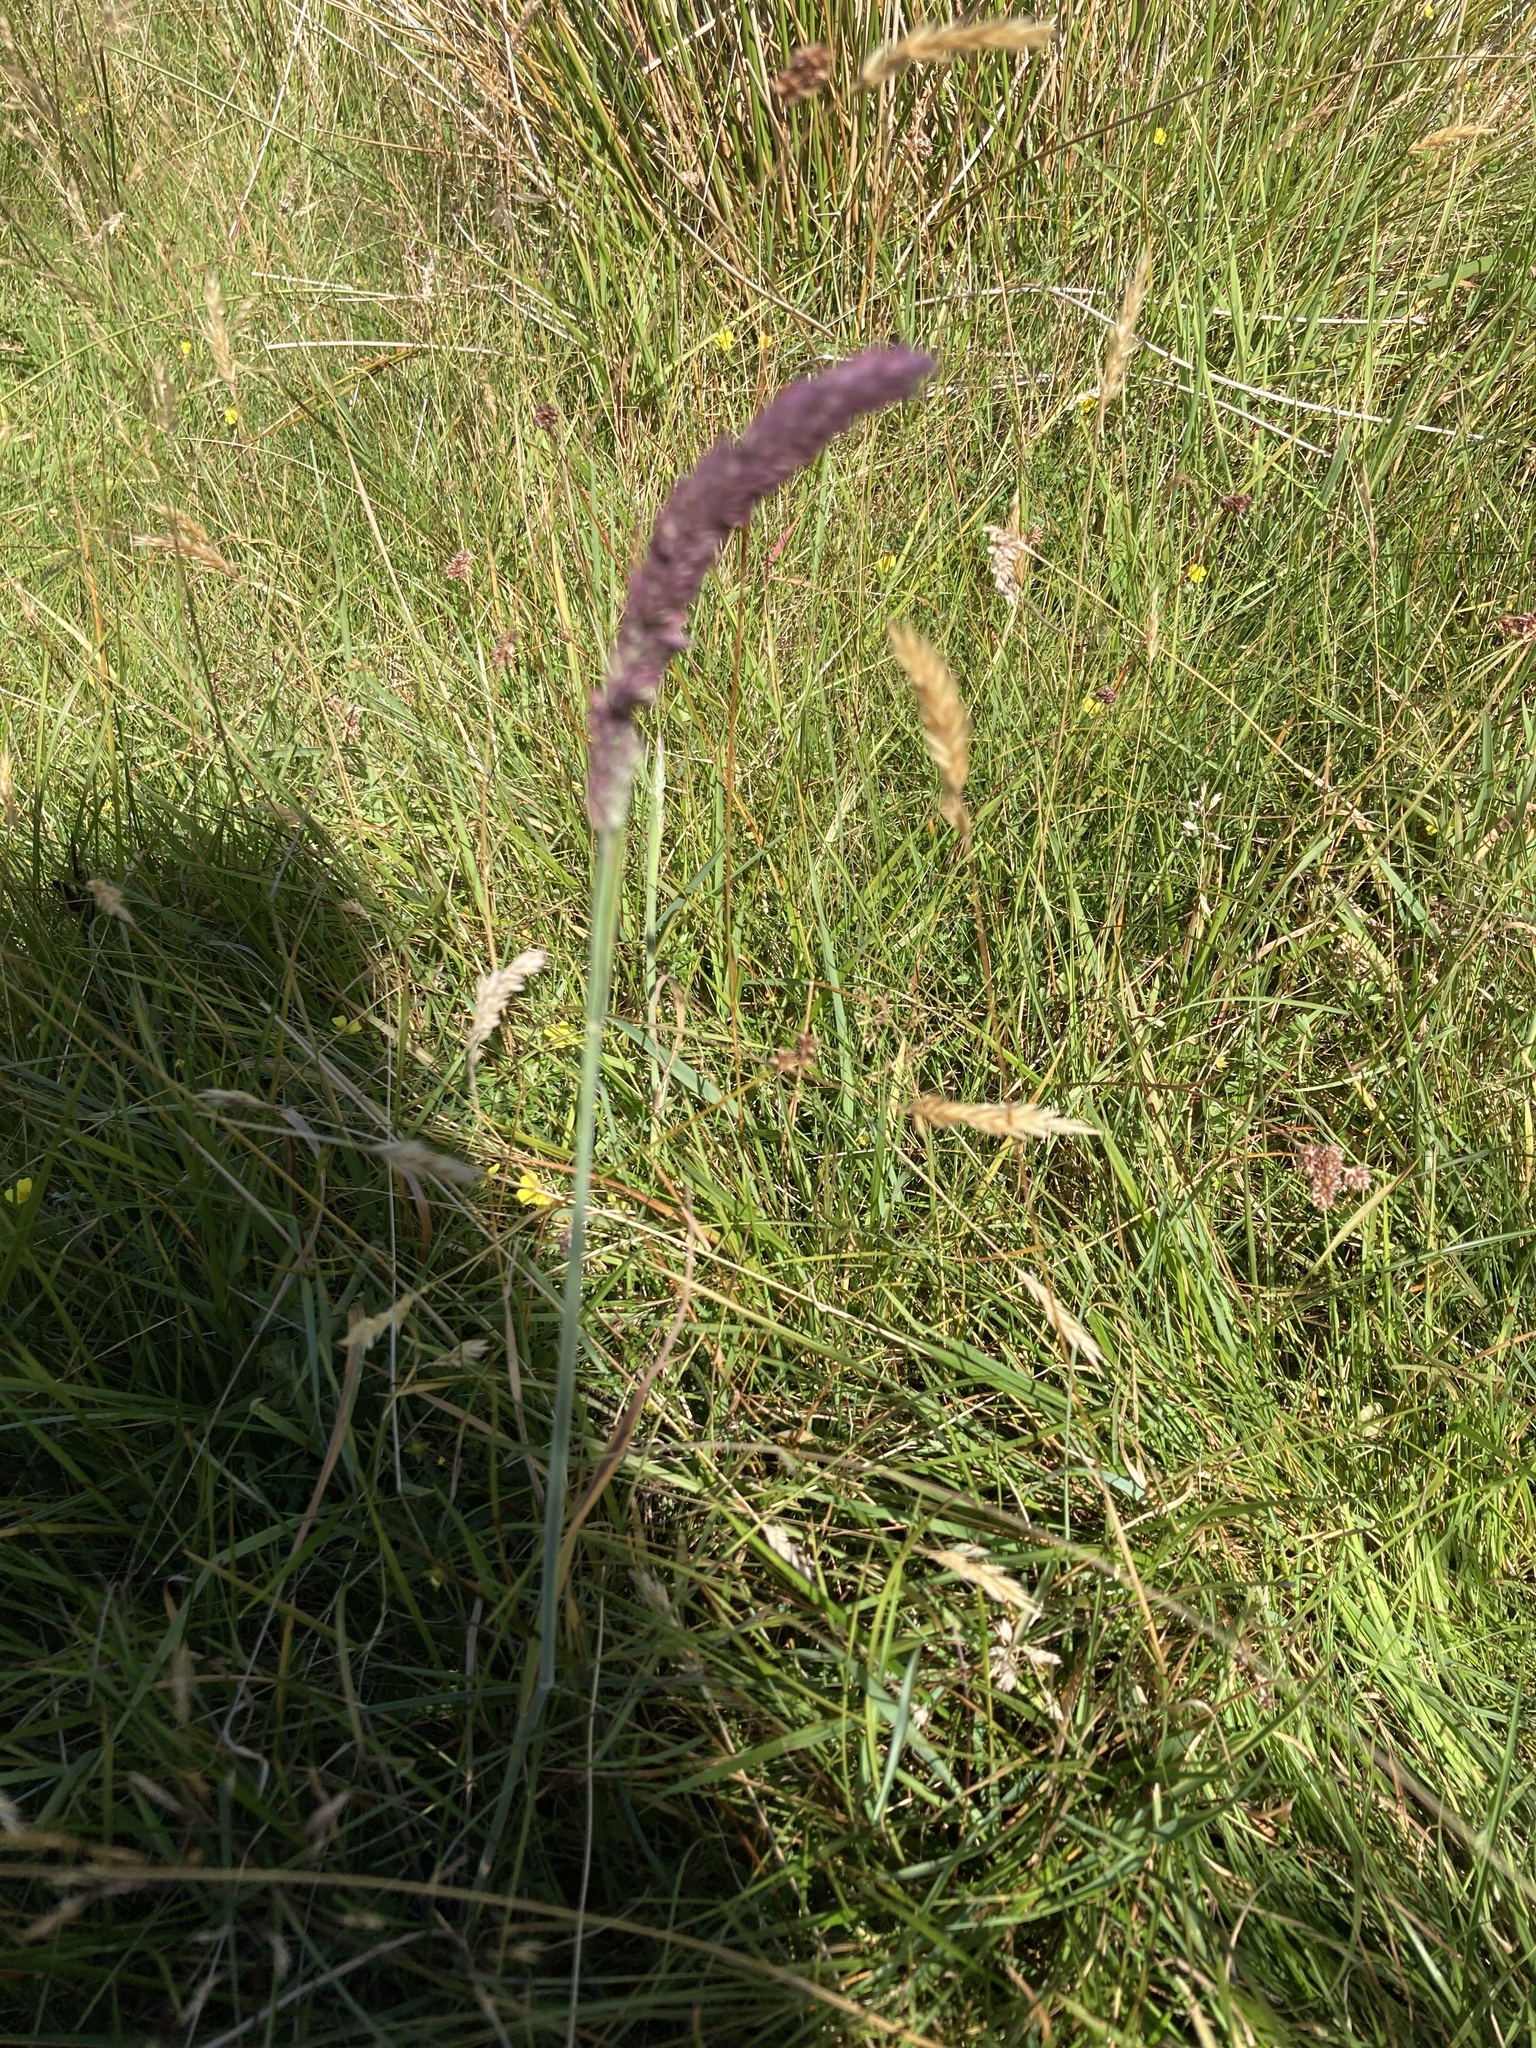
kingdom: Plantae
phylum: Tracheophyta
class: Liliopsida
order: Poales
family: Poaceae
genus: Holcus
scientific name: Holcus lanatus
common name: Yorkshire-fog
